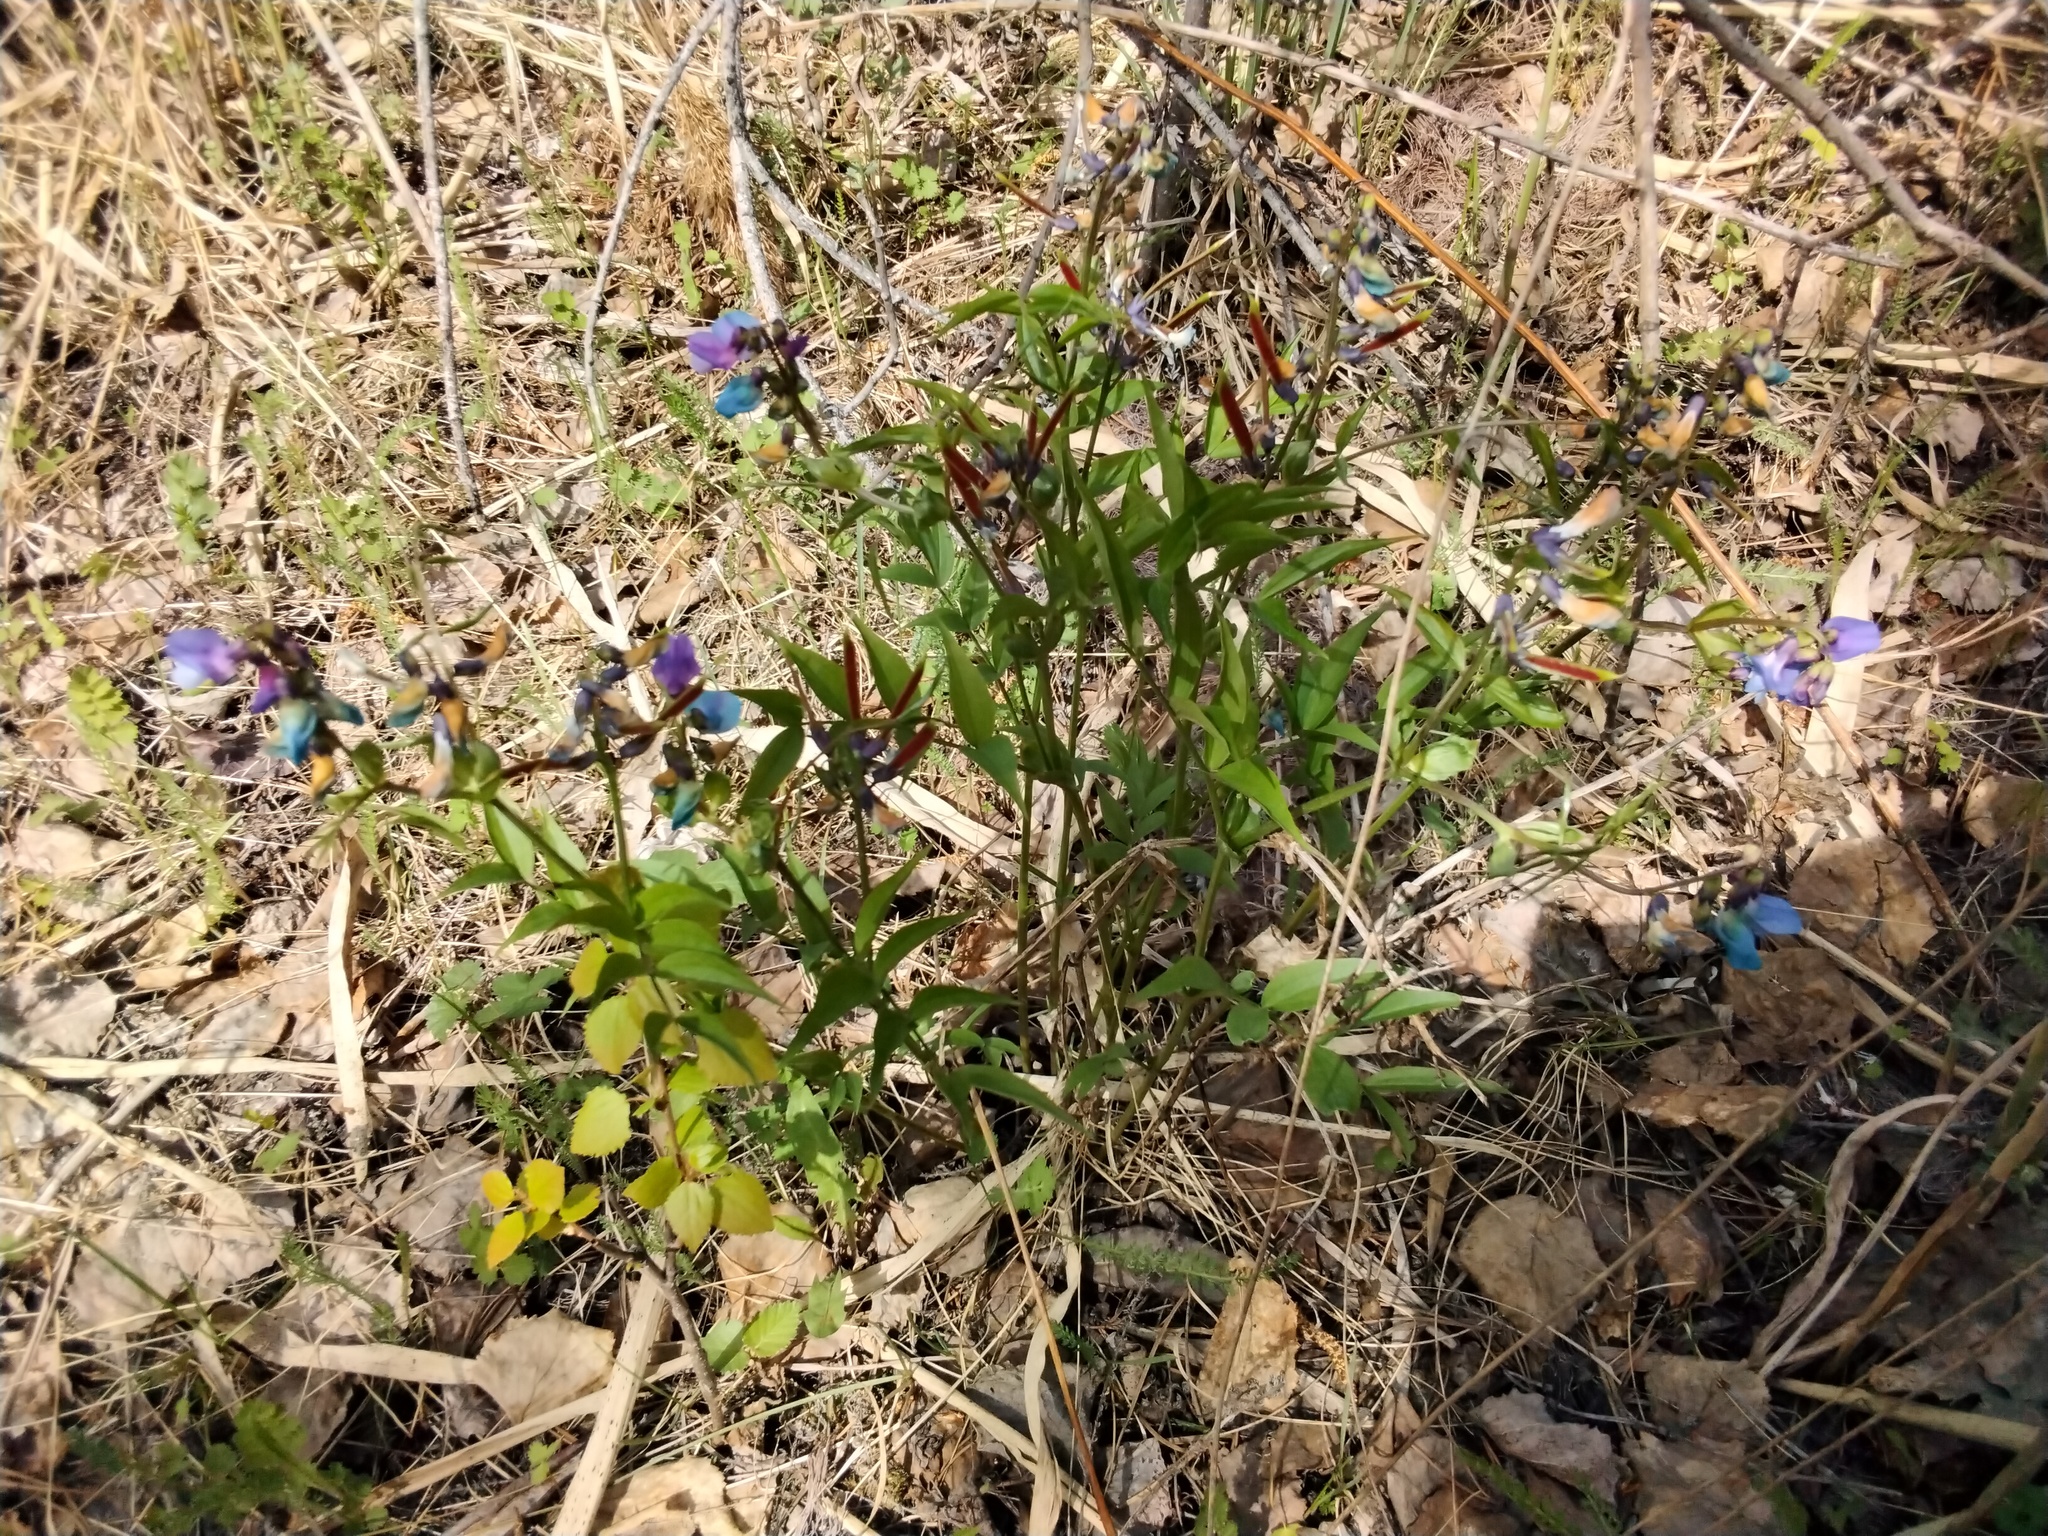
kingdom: Plantae
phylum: Tracheophyta
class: Magnoliopsida
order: Fabales
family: Fabaceae
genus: Lathyrus
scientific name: Lathyrus vernus
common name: Spring pea
